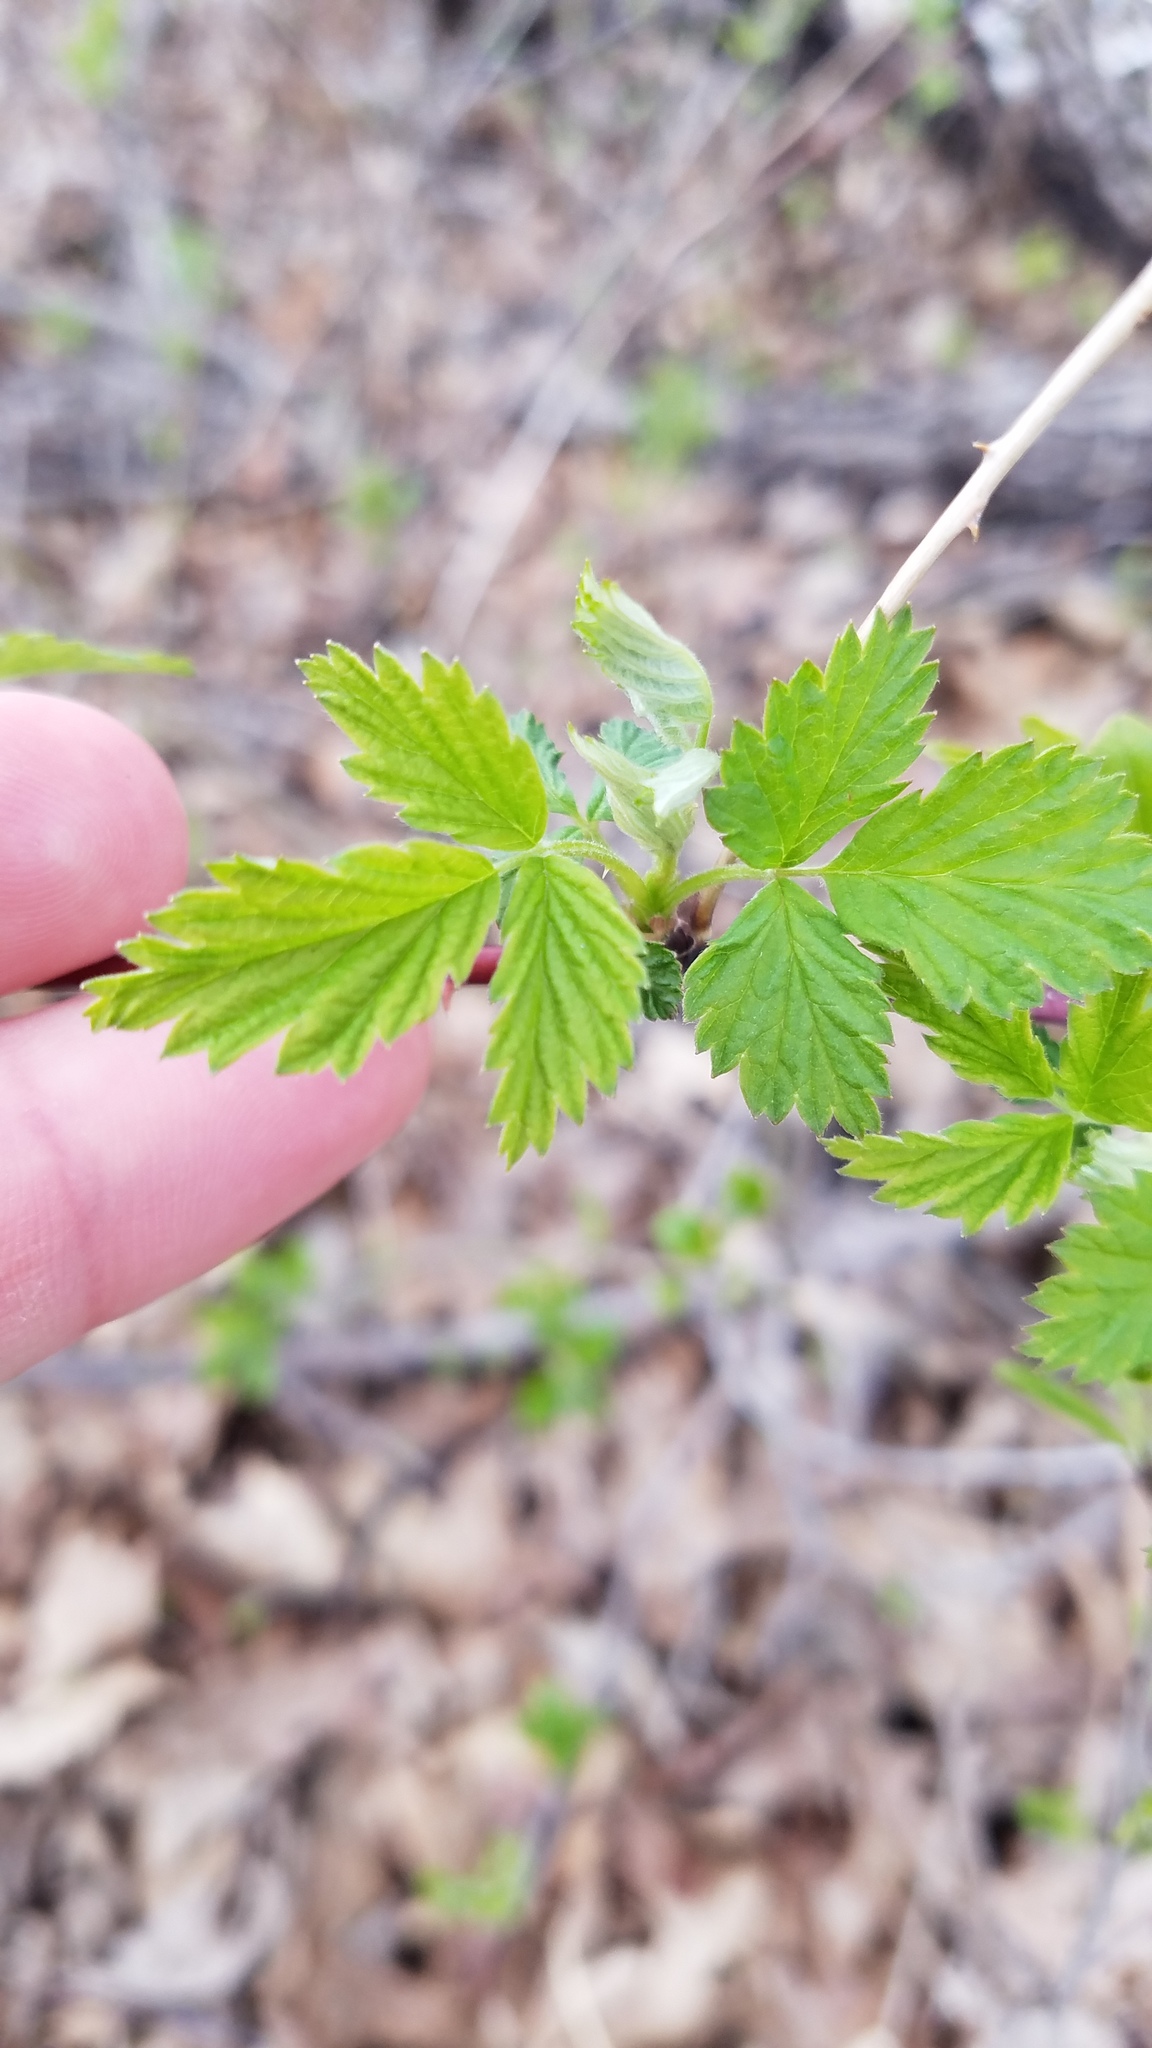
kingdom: Plantae
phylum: Tracheophyta
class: Magnoliopsida
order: Rosales
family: Rosaceae
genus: Rubus
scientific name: Rubus occidentalis
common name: Black raspberry
